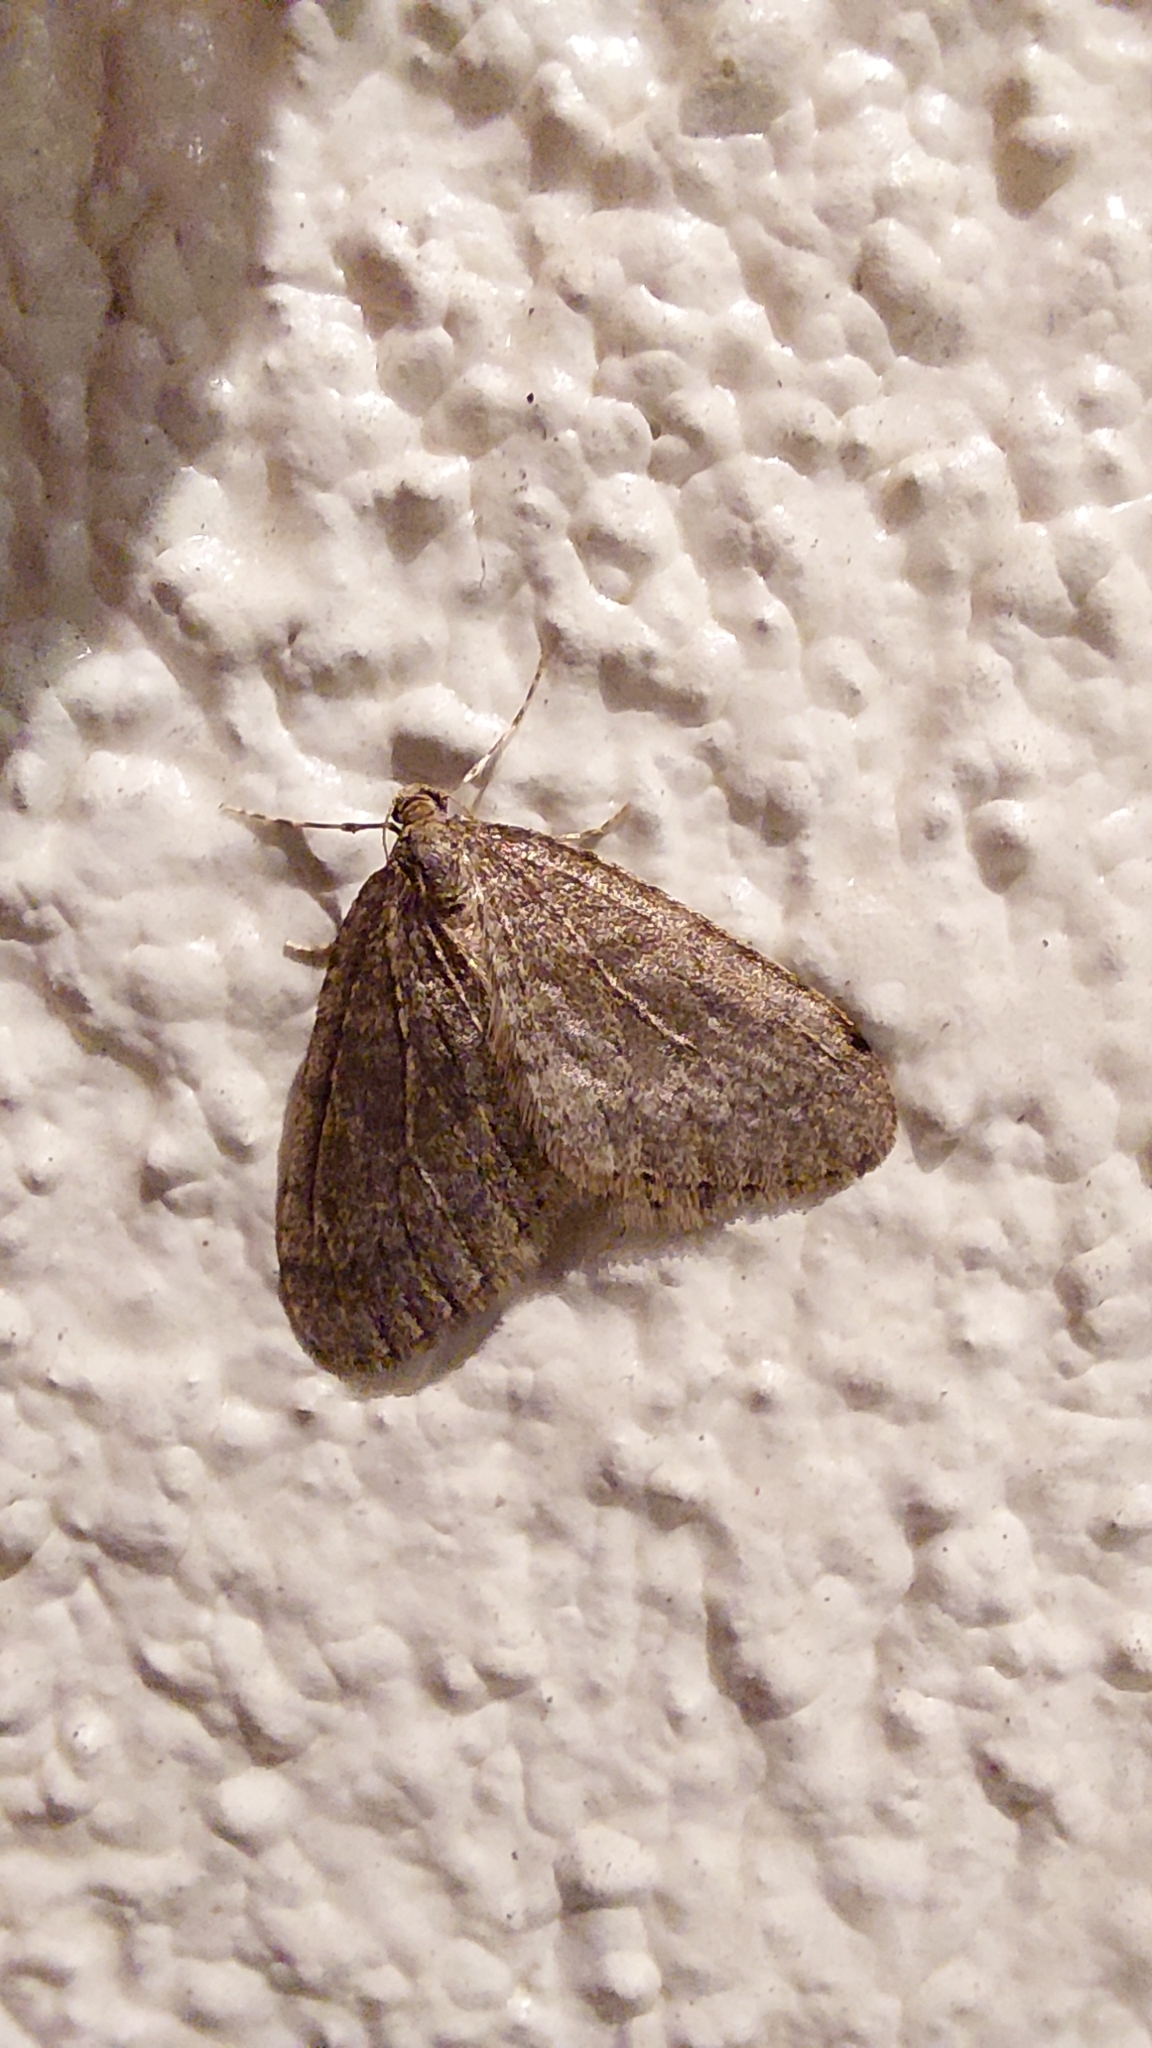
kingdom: Animalia
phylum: Arthropoda
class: Insecta
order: Lepidoptera
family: Geometridae
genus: Operophtera
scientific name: Operophtera brumata
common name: Winter moth
